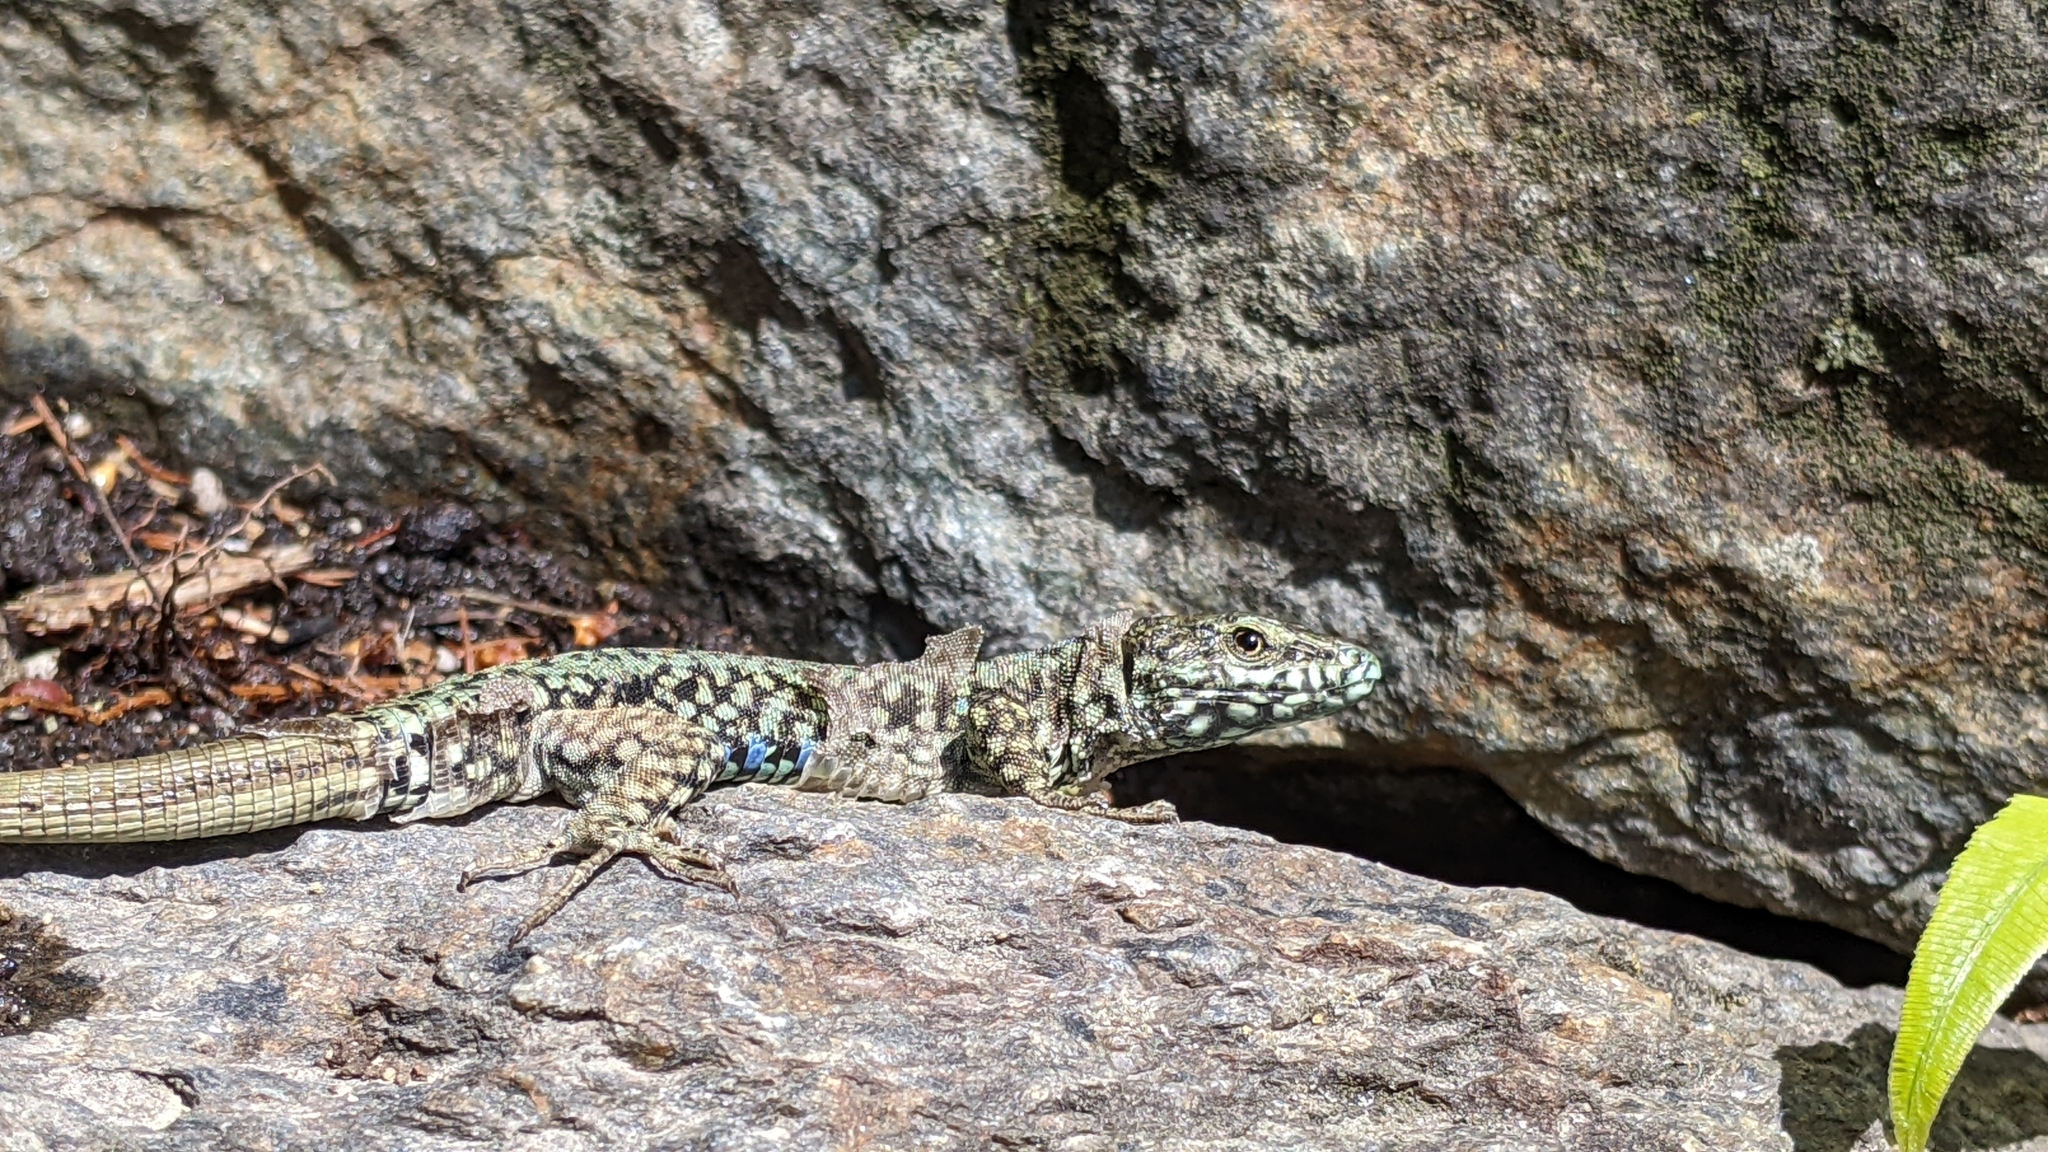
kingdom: Animalia
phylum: Chordata
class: Squamata
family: Lacertidae
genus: Podarcis
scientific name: Podarcis muralis
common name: Common wall lizard
